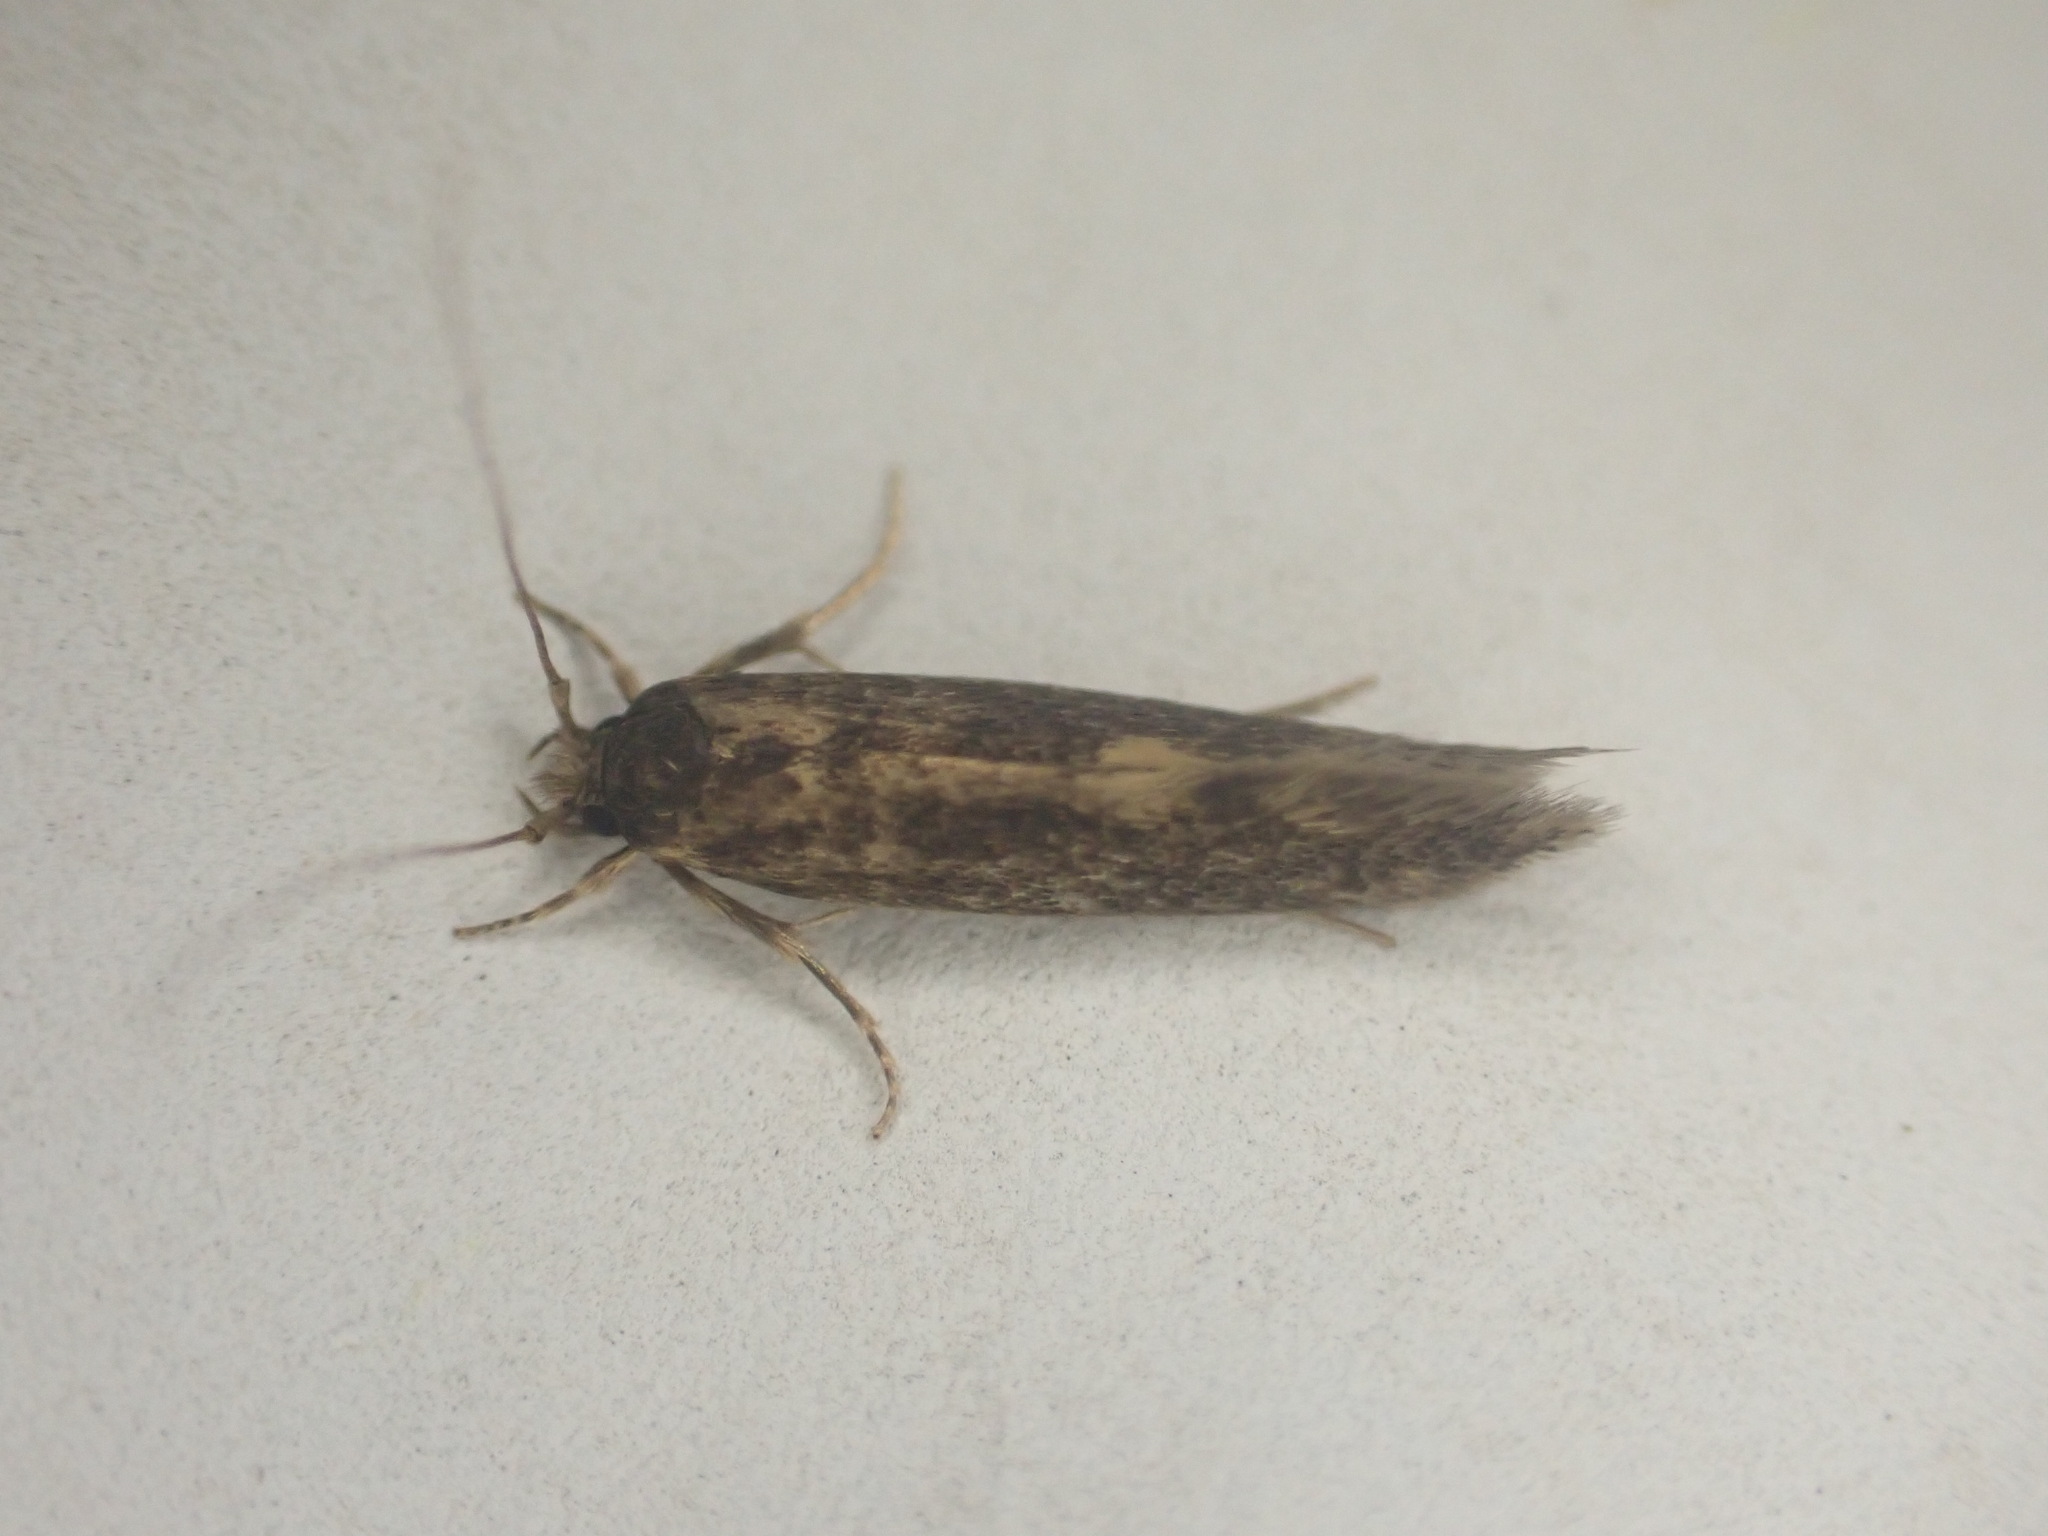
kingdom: Animalia
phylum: Arthropoda
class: Insecta
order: Lepidoptera
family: Tineidae
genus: Opogona
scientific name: Opogona omoscopa
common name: Moth
